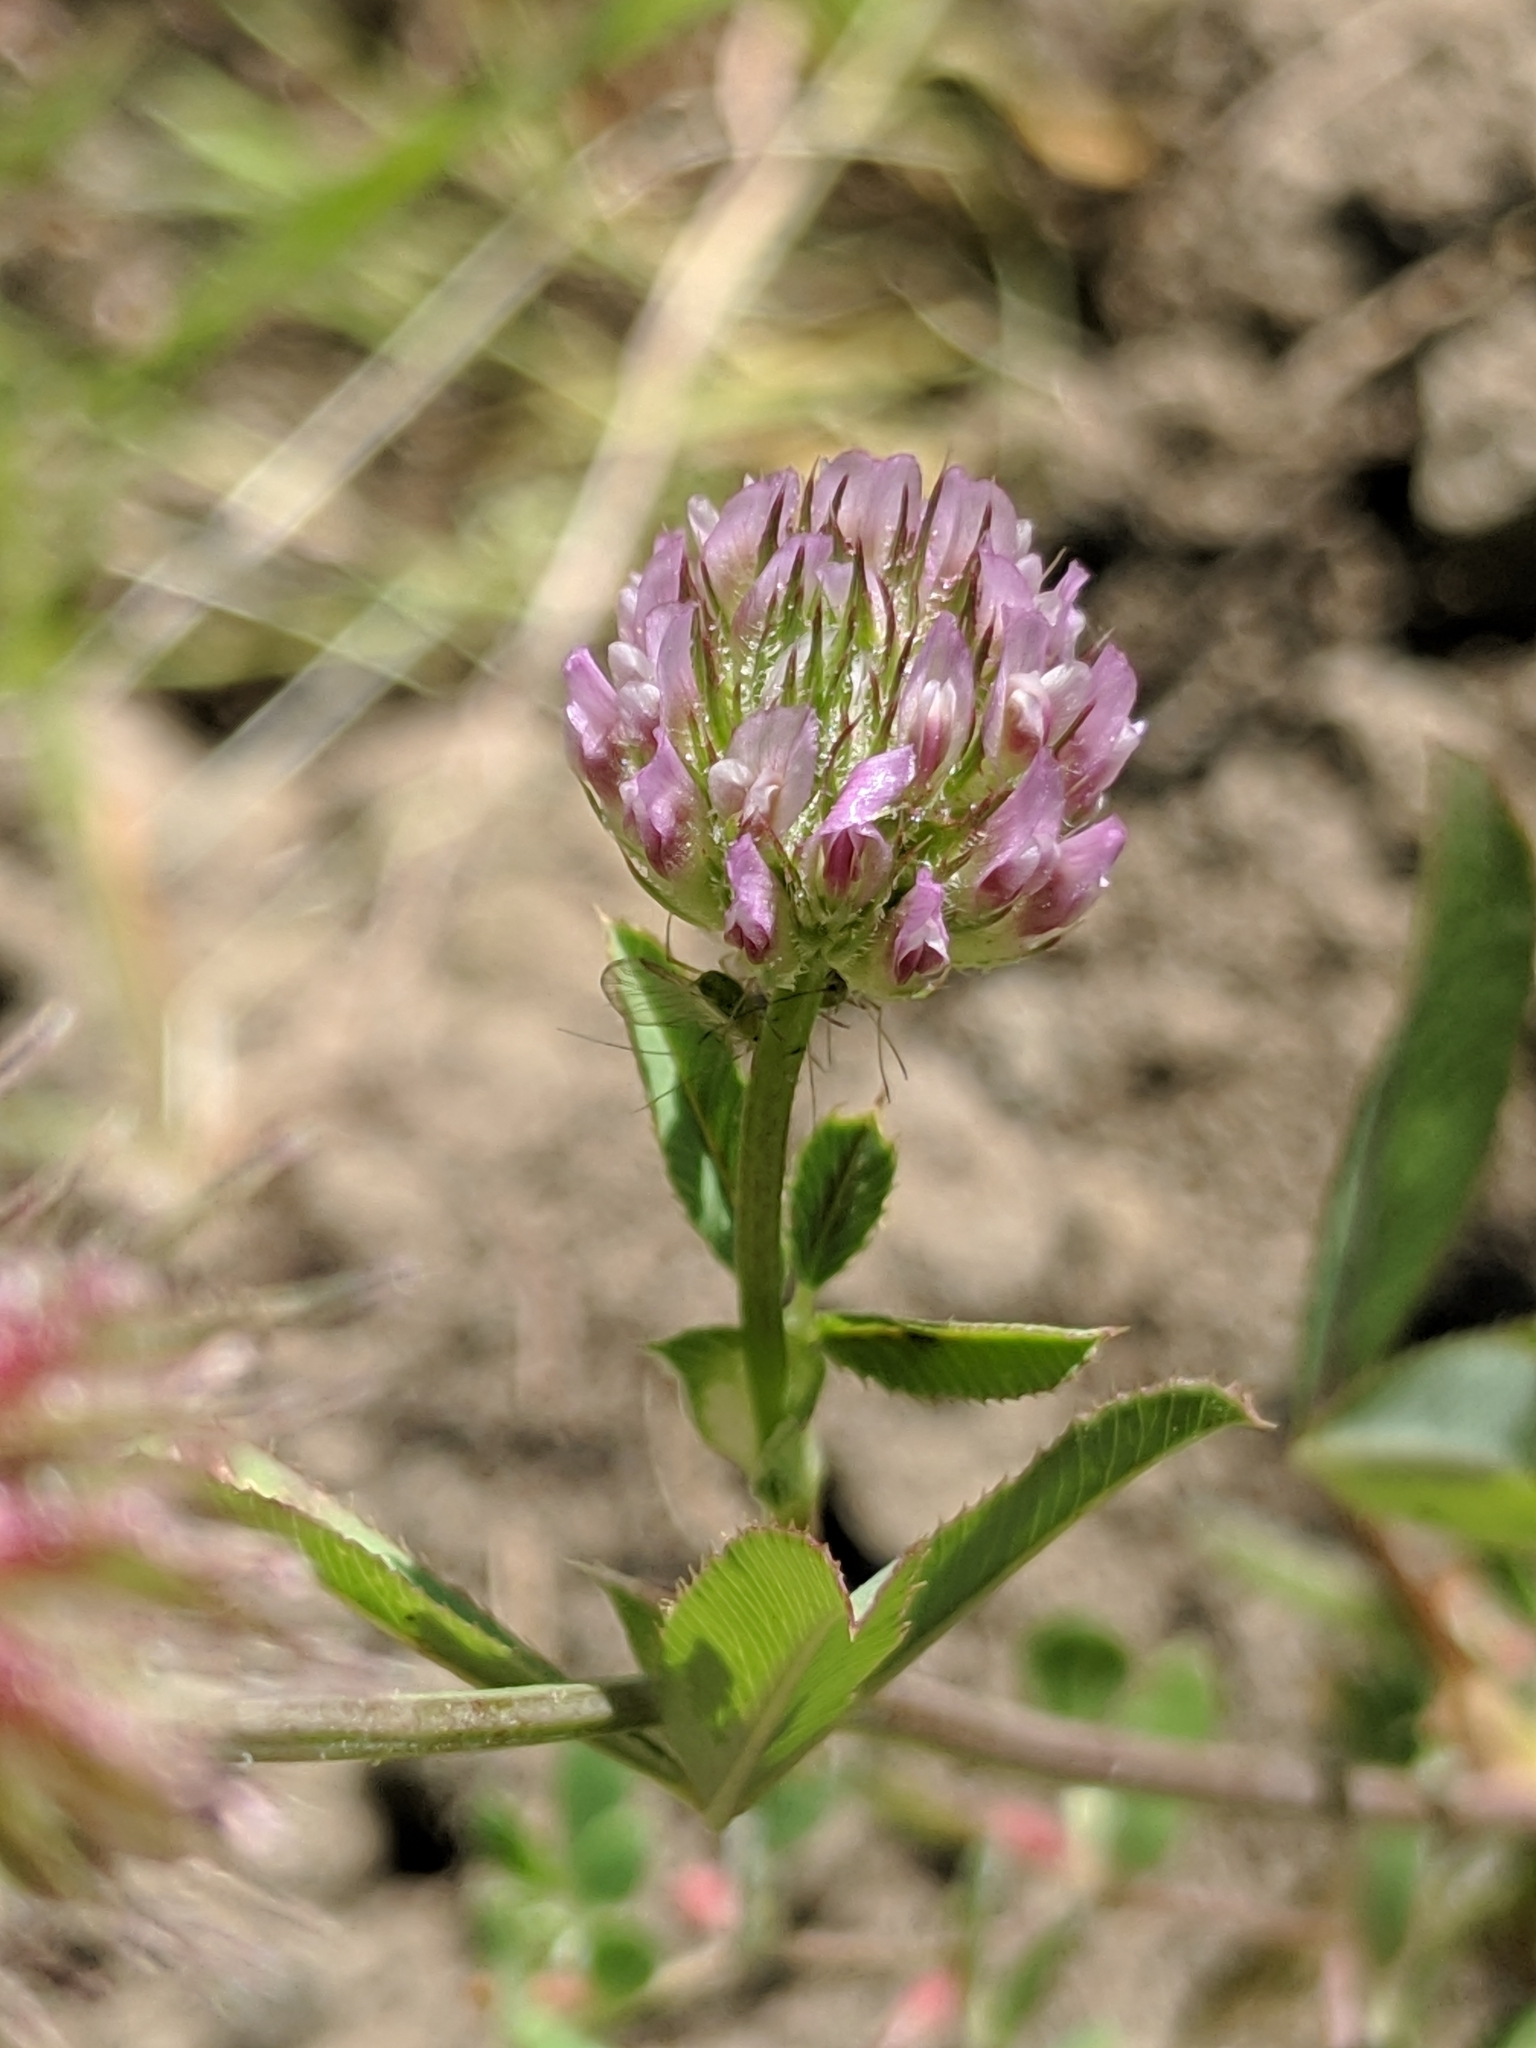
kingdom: Plantae
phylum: Tracheophyta
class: Magnoliopsida
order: Fabales
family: Fabaceae
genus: Trifolium
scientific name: Trifolium
